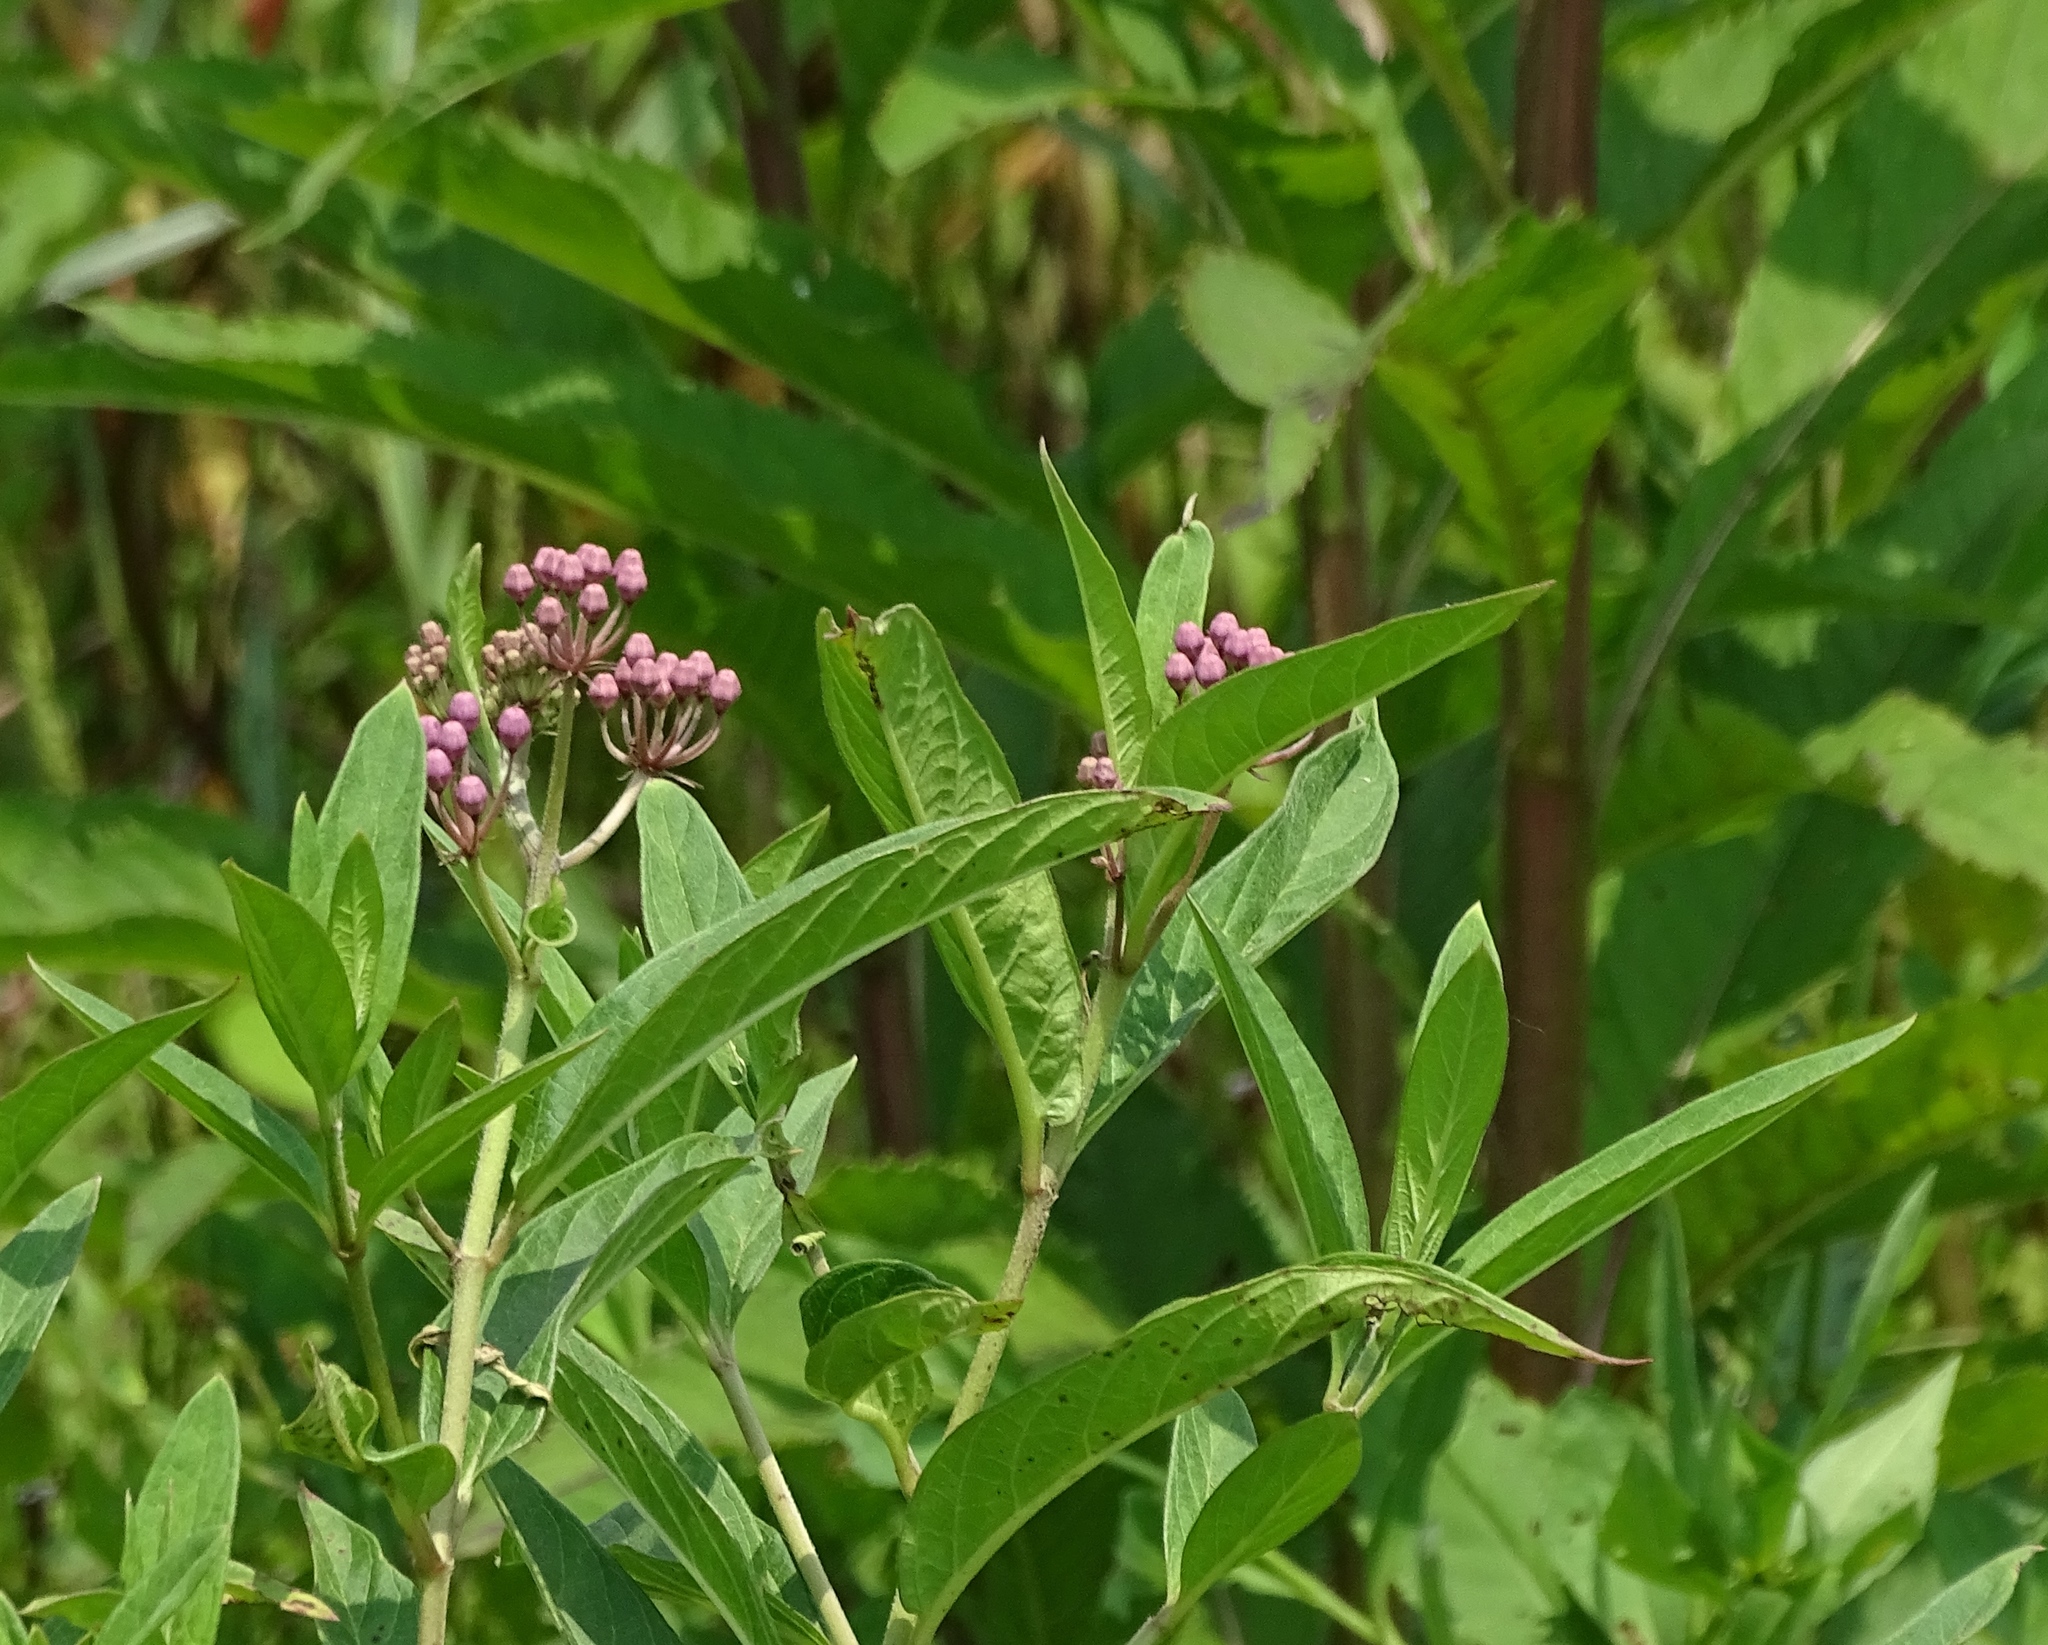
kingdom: Plantae
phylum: Tracheophyta
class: Magnoliopsida
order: Gentianales
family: Apocynaceae
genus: Asclepias
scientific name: Asclepias incarnata
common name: Swamp milkweed
